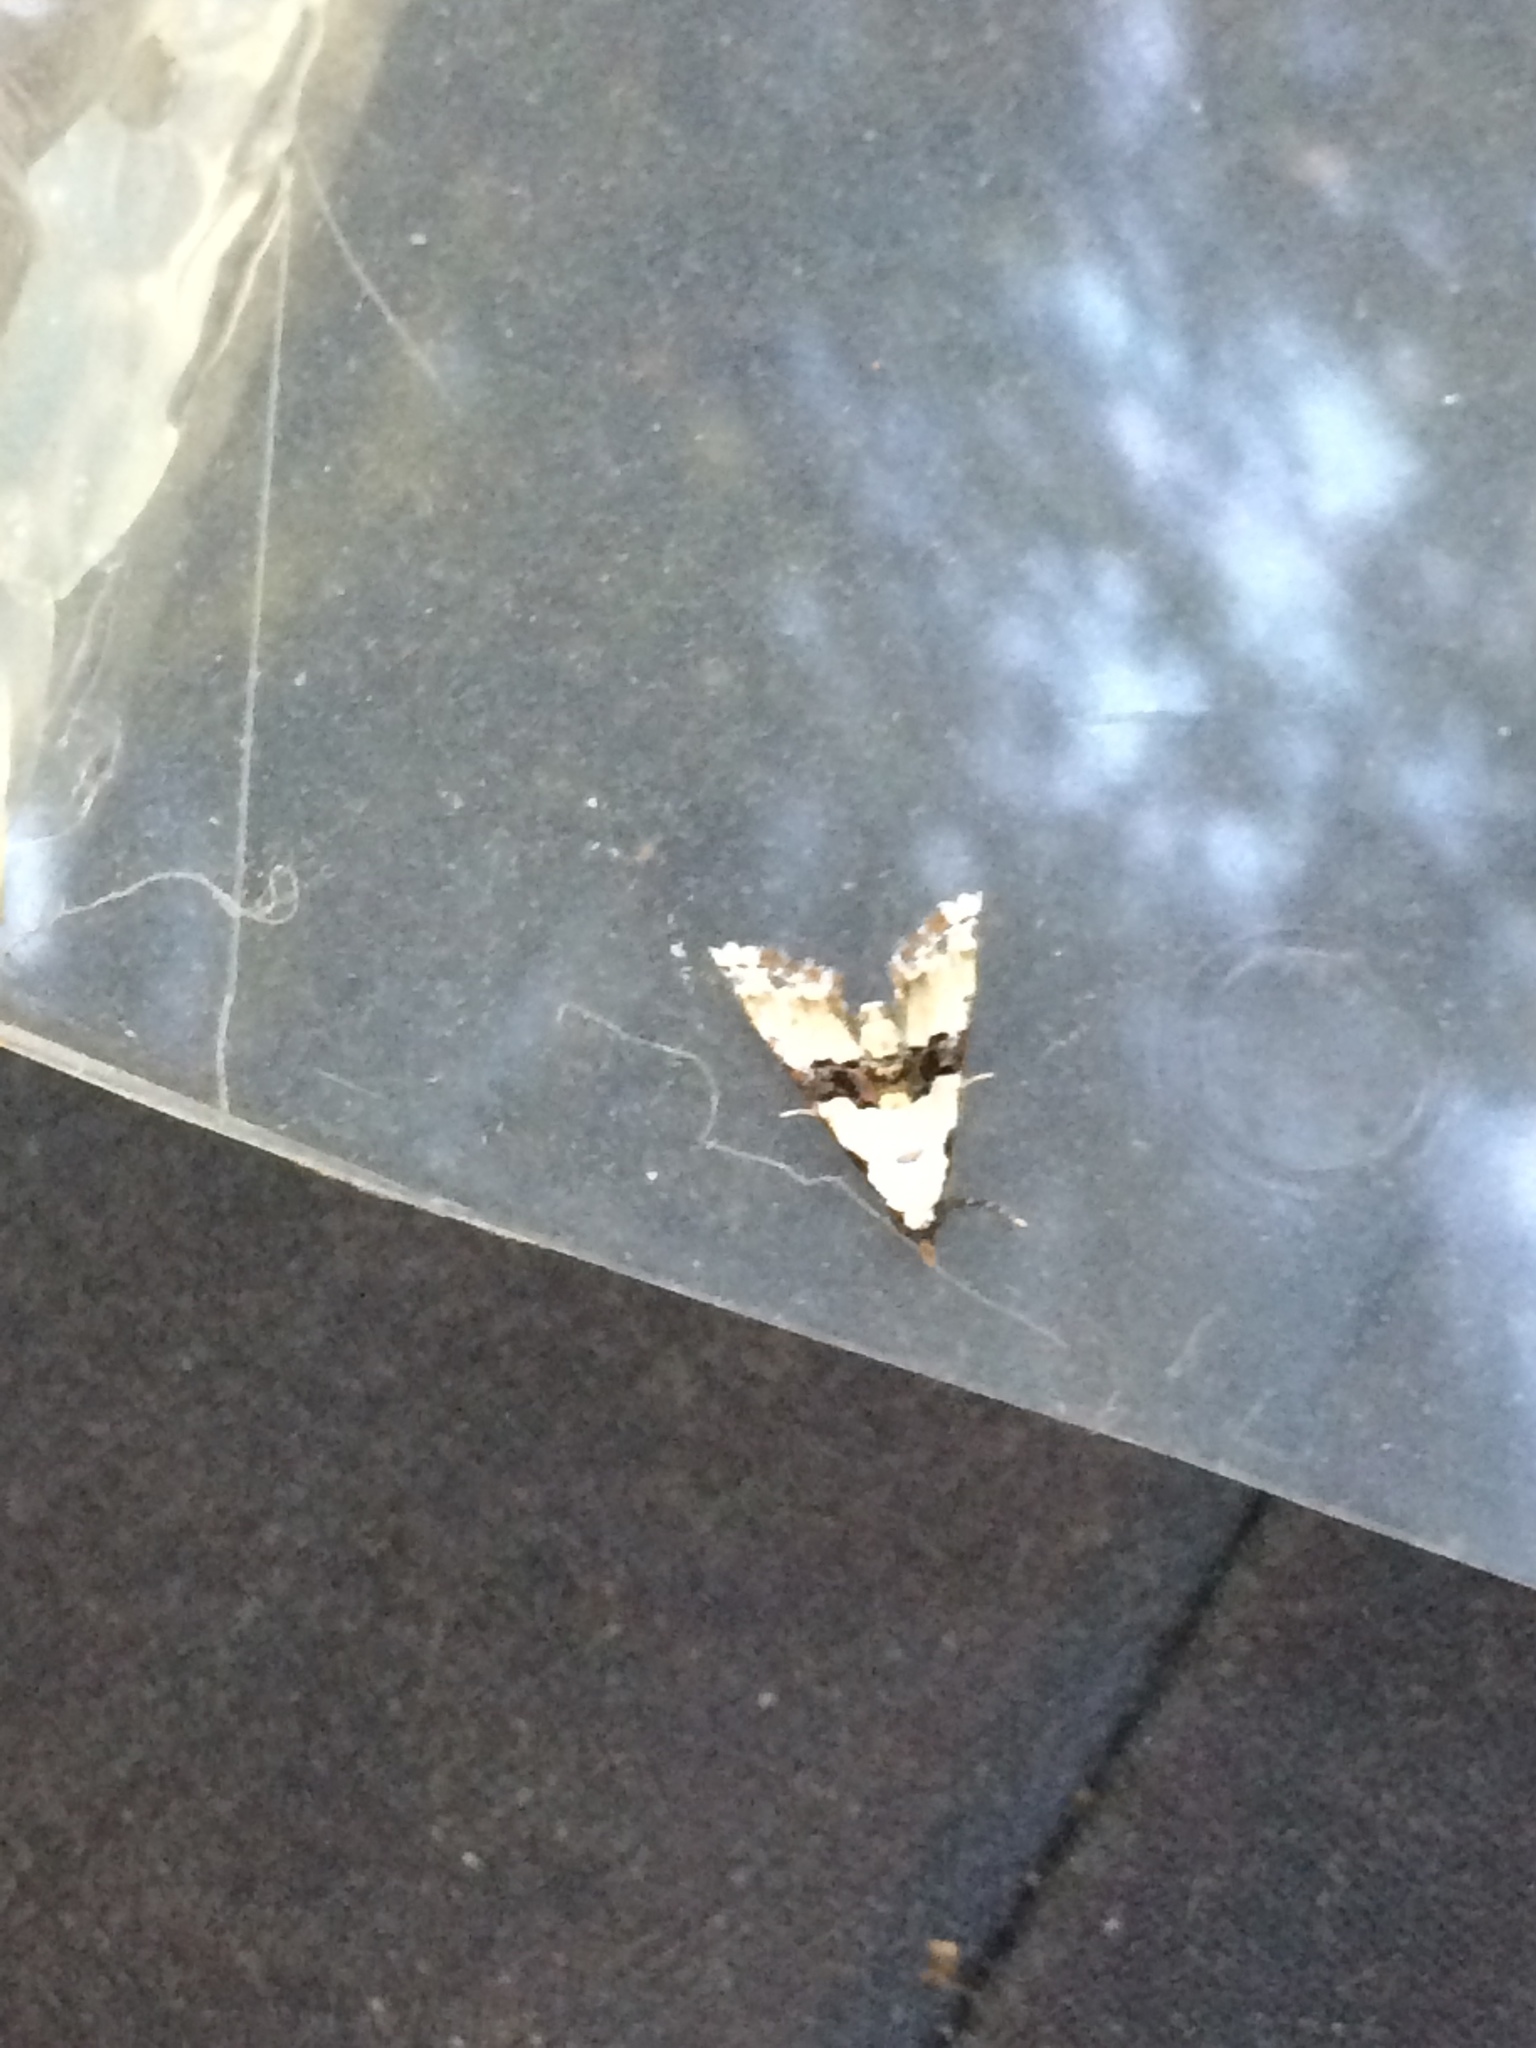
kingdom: Animalia
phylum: Arthropoda
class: Insecta
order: Lepidoptera
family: Noctuidae
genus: Nigetia
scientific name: Nigetia formosalis
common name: Thin-winged owlet
